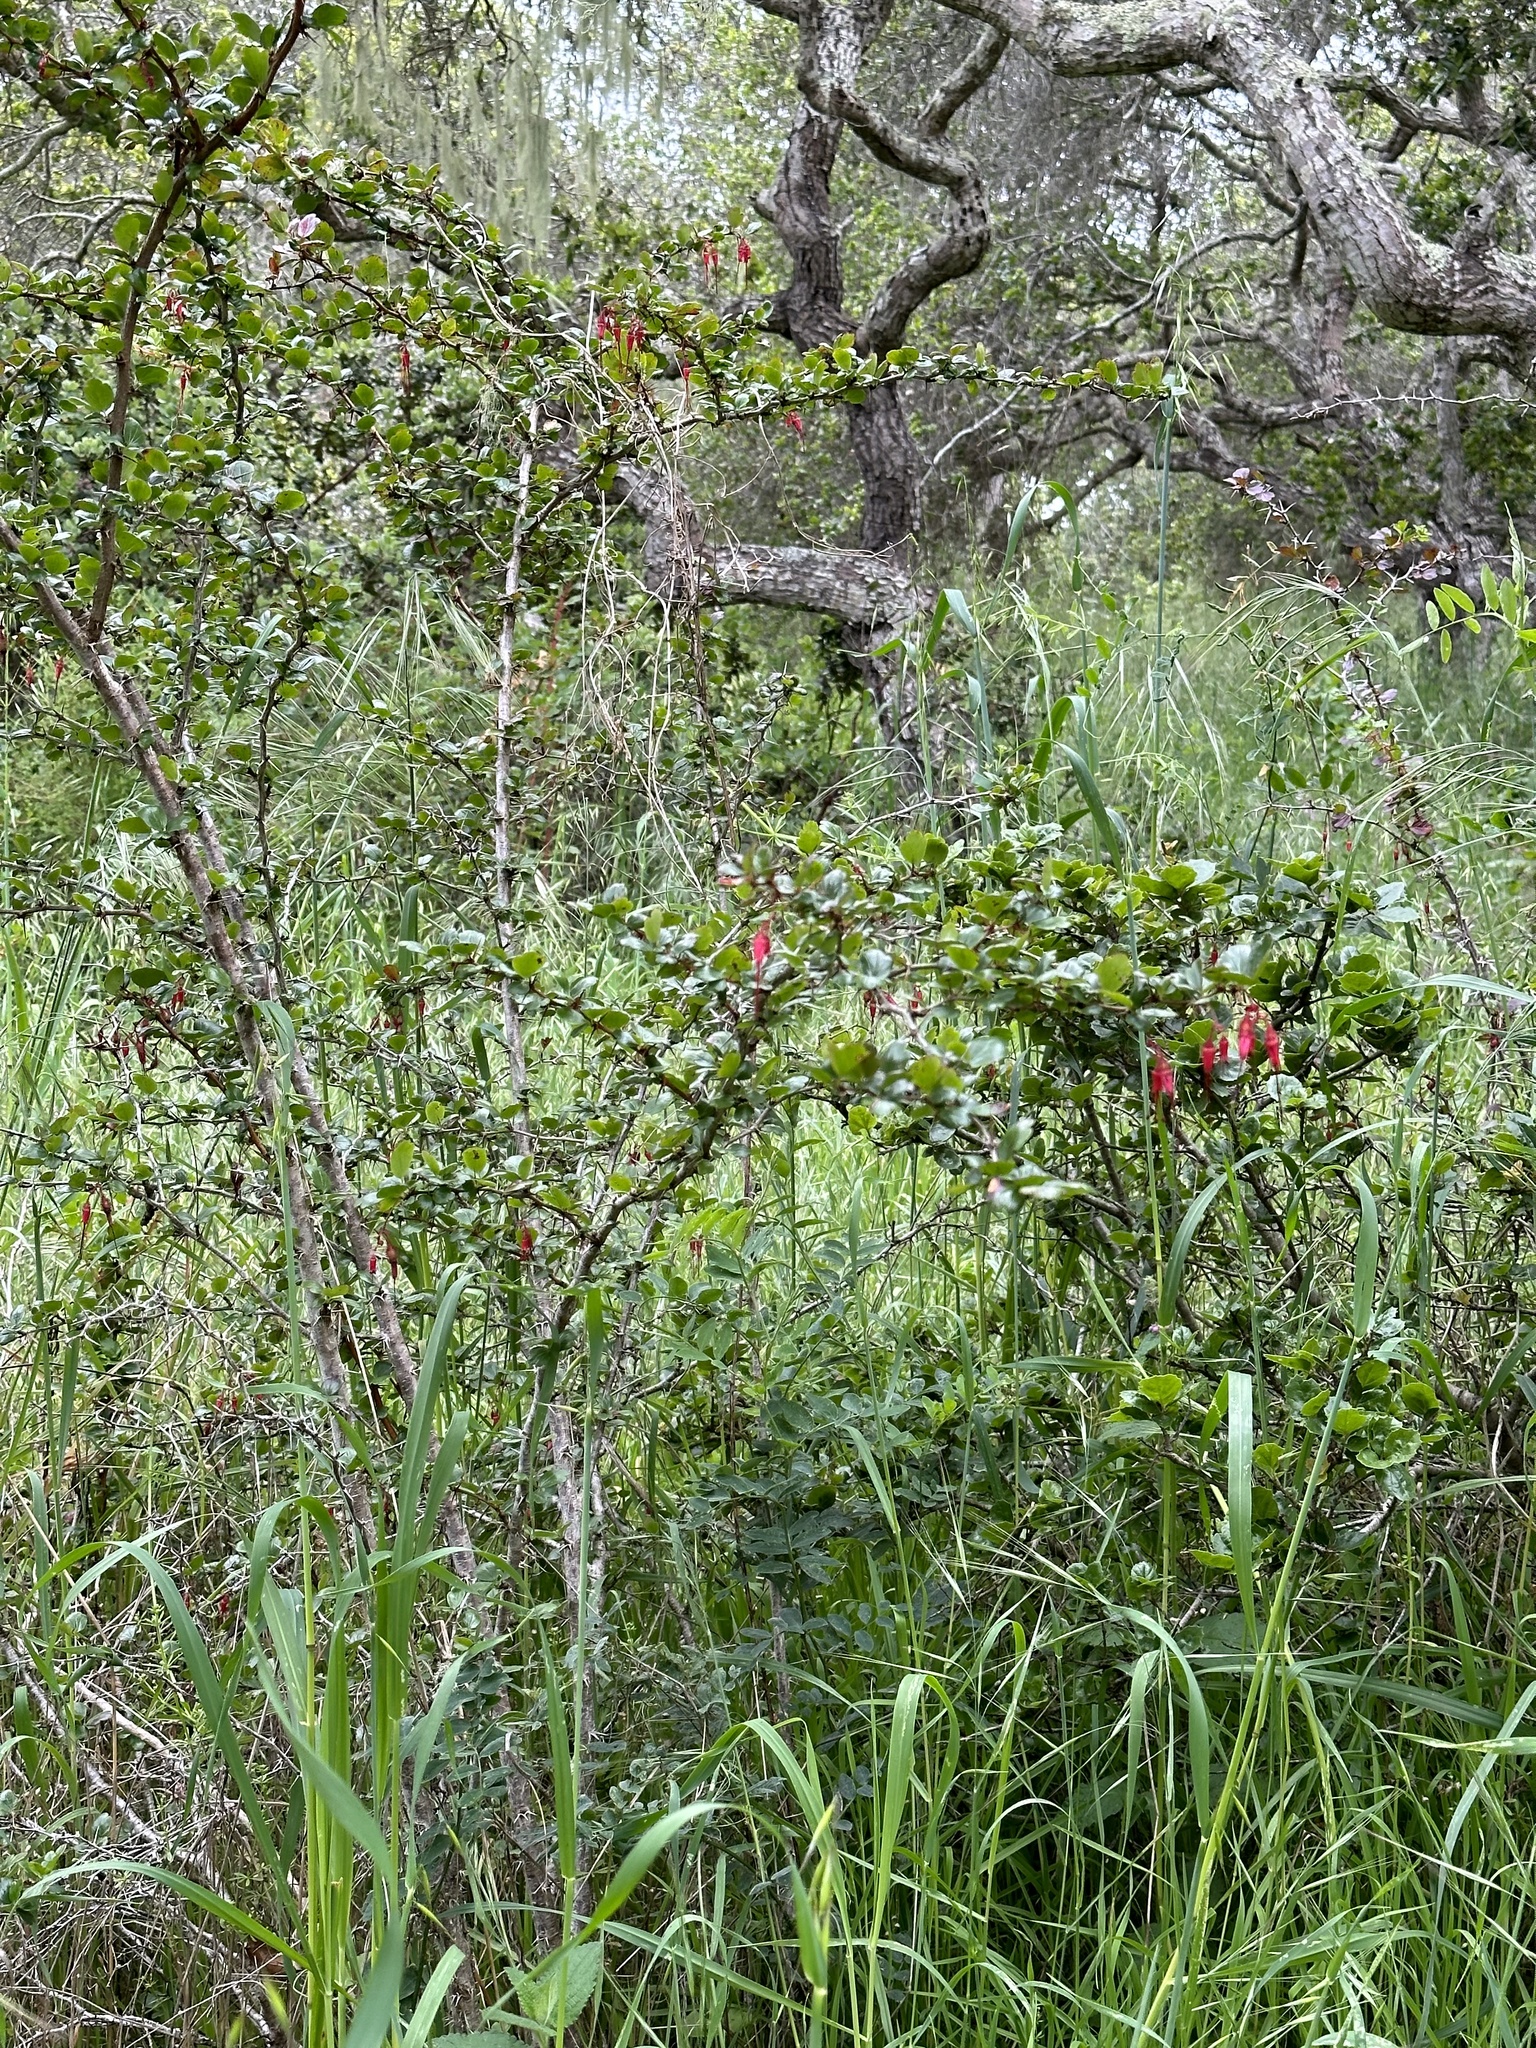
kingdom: Plantae
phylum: Tracheophyta
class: Magnoliopsida
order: Saxifragales
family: Grossulariaceae
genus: Ribes
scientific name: Ribes speciosum
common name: Fuchsia-flower gooseberry
